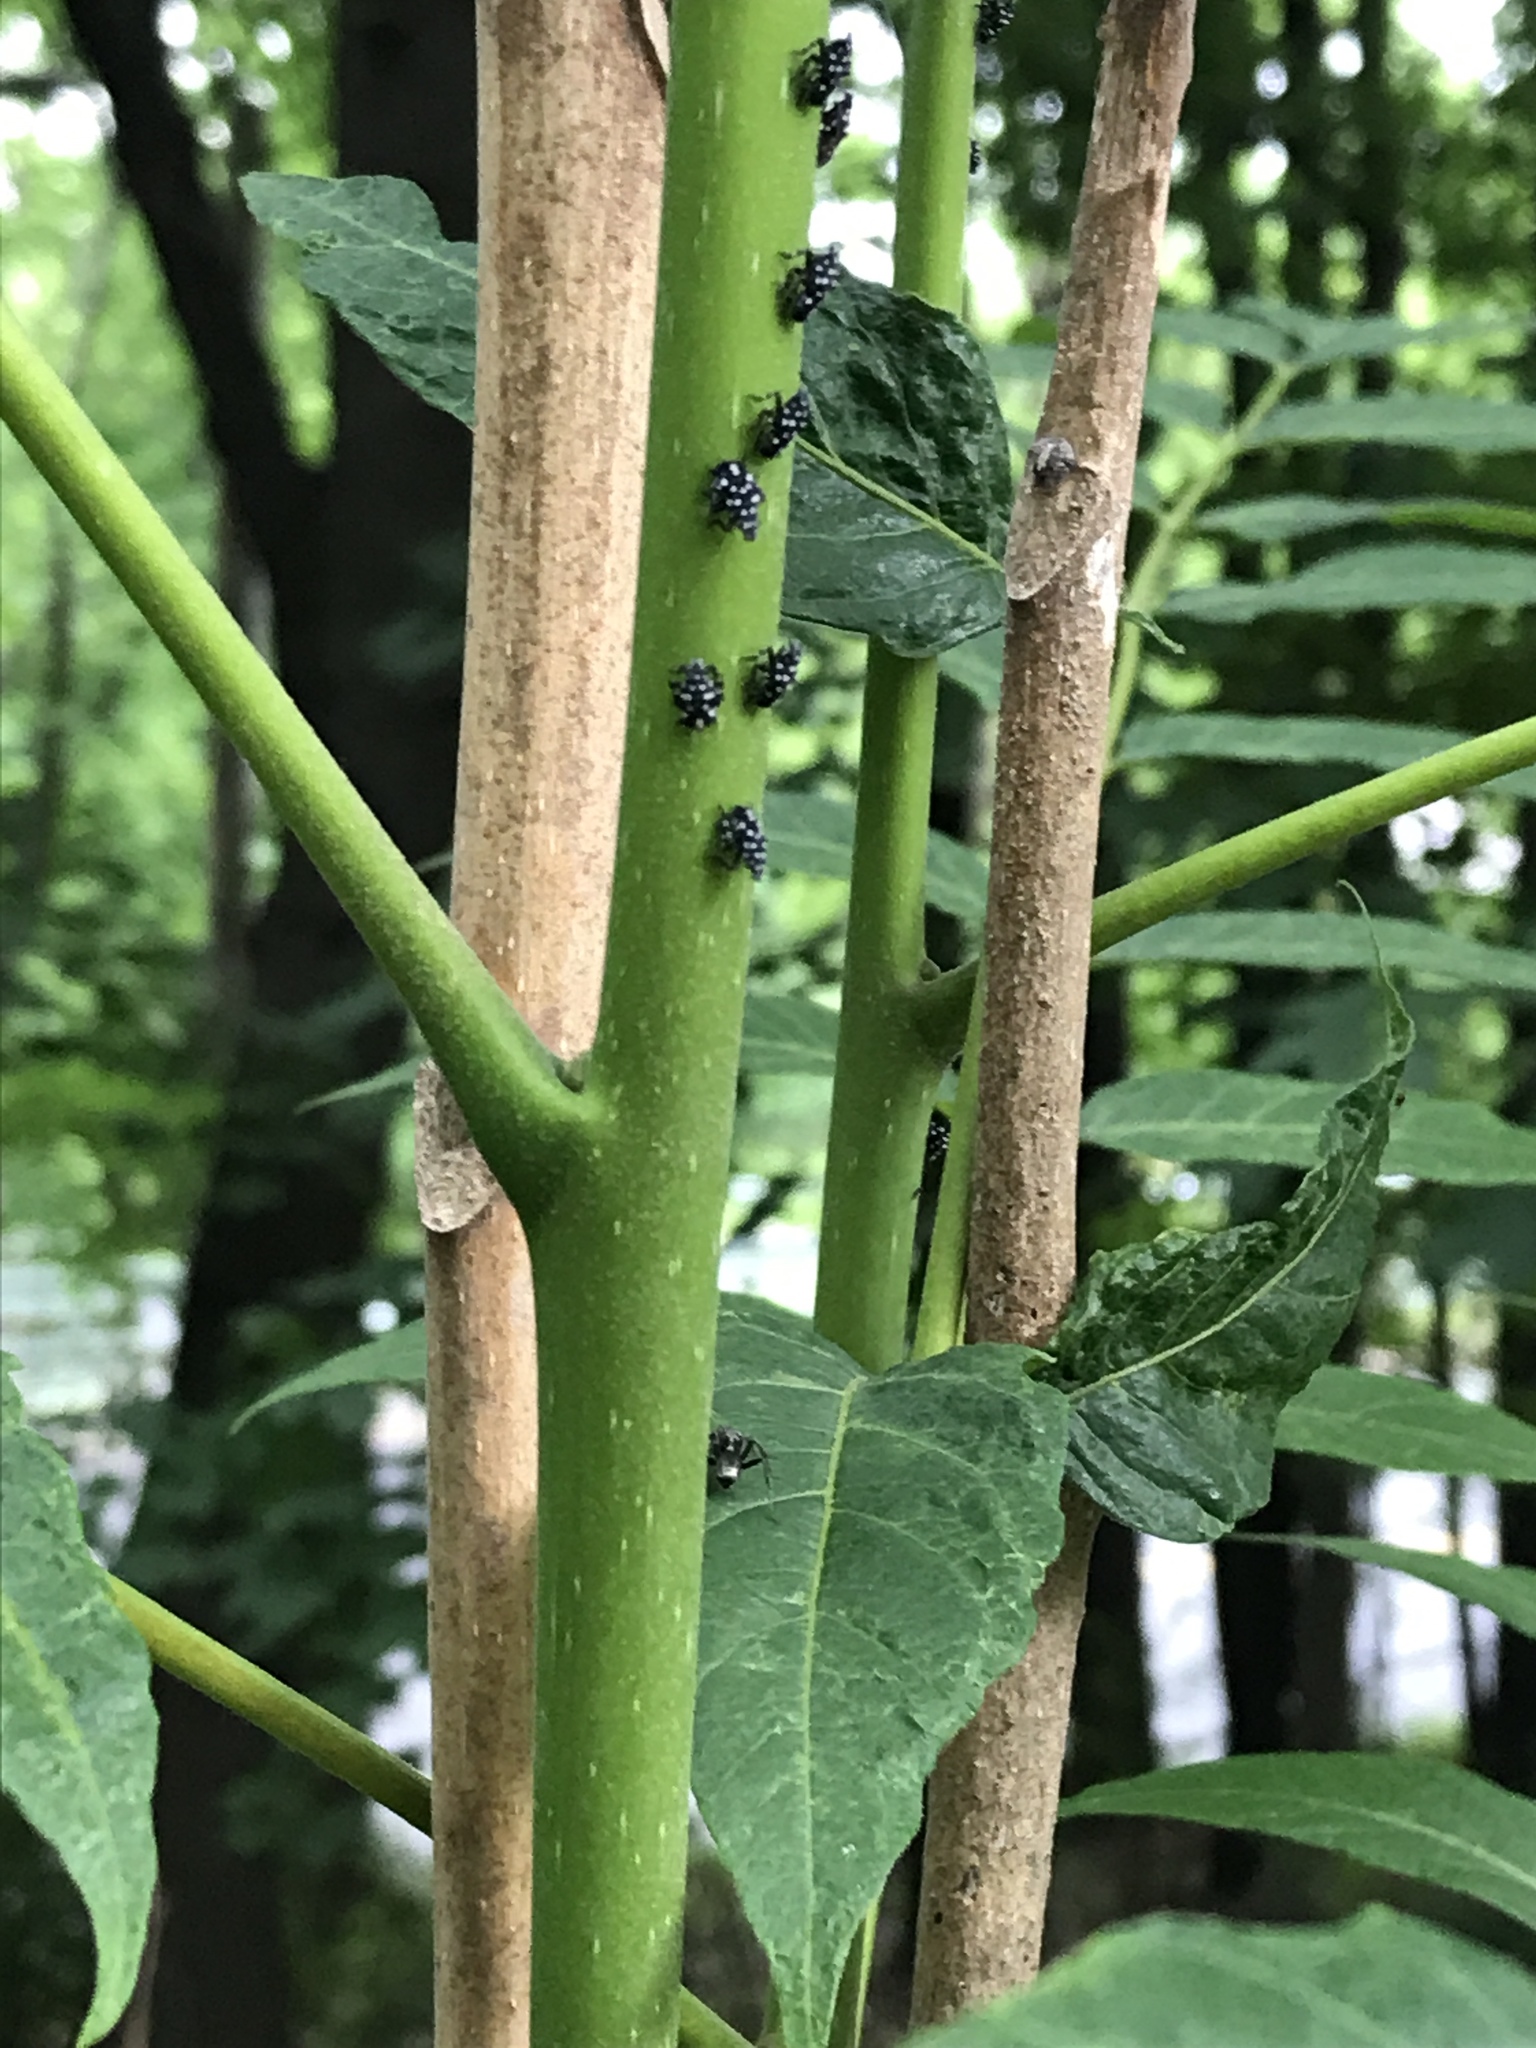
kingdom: Animalia
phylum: Arthropoda
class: Insecta
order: Hemiptera
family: Fulgoridae
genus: Lycorma
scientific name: Lycorma delicatula
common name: Spotted lanternfly
